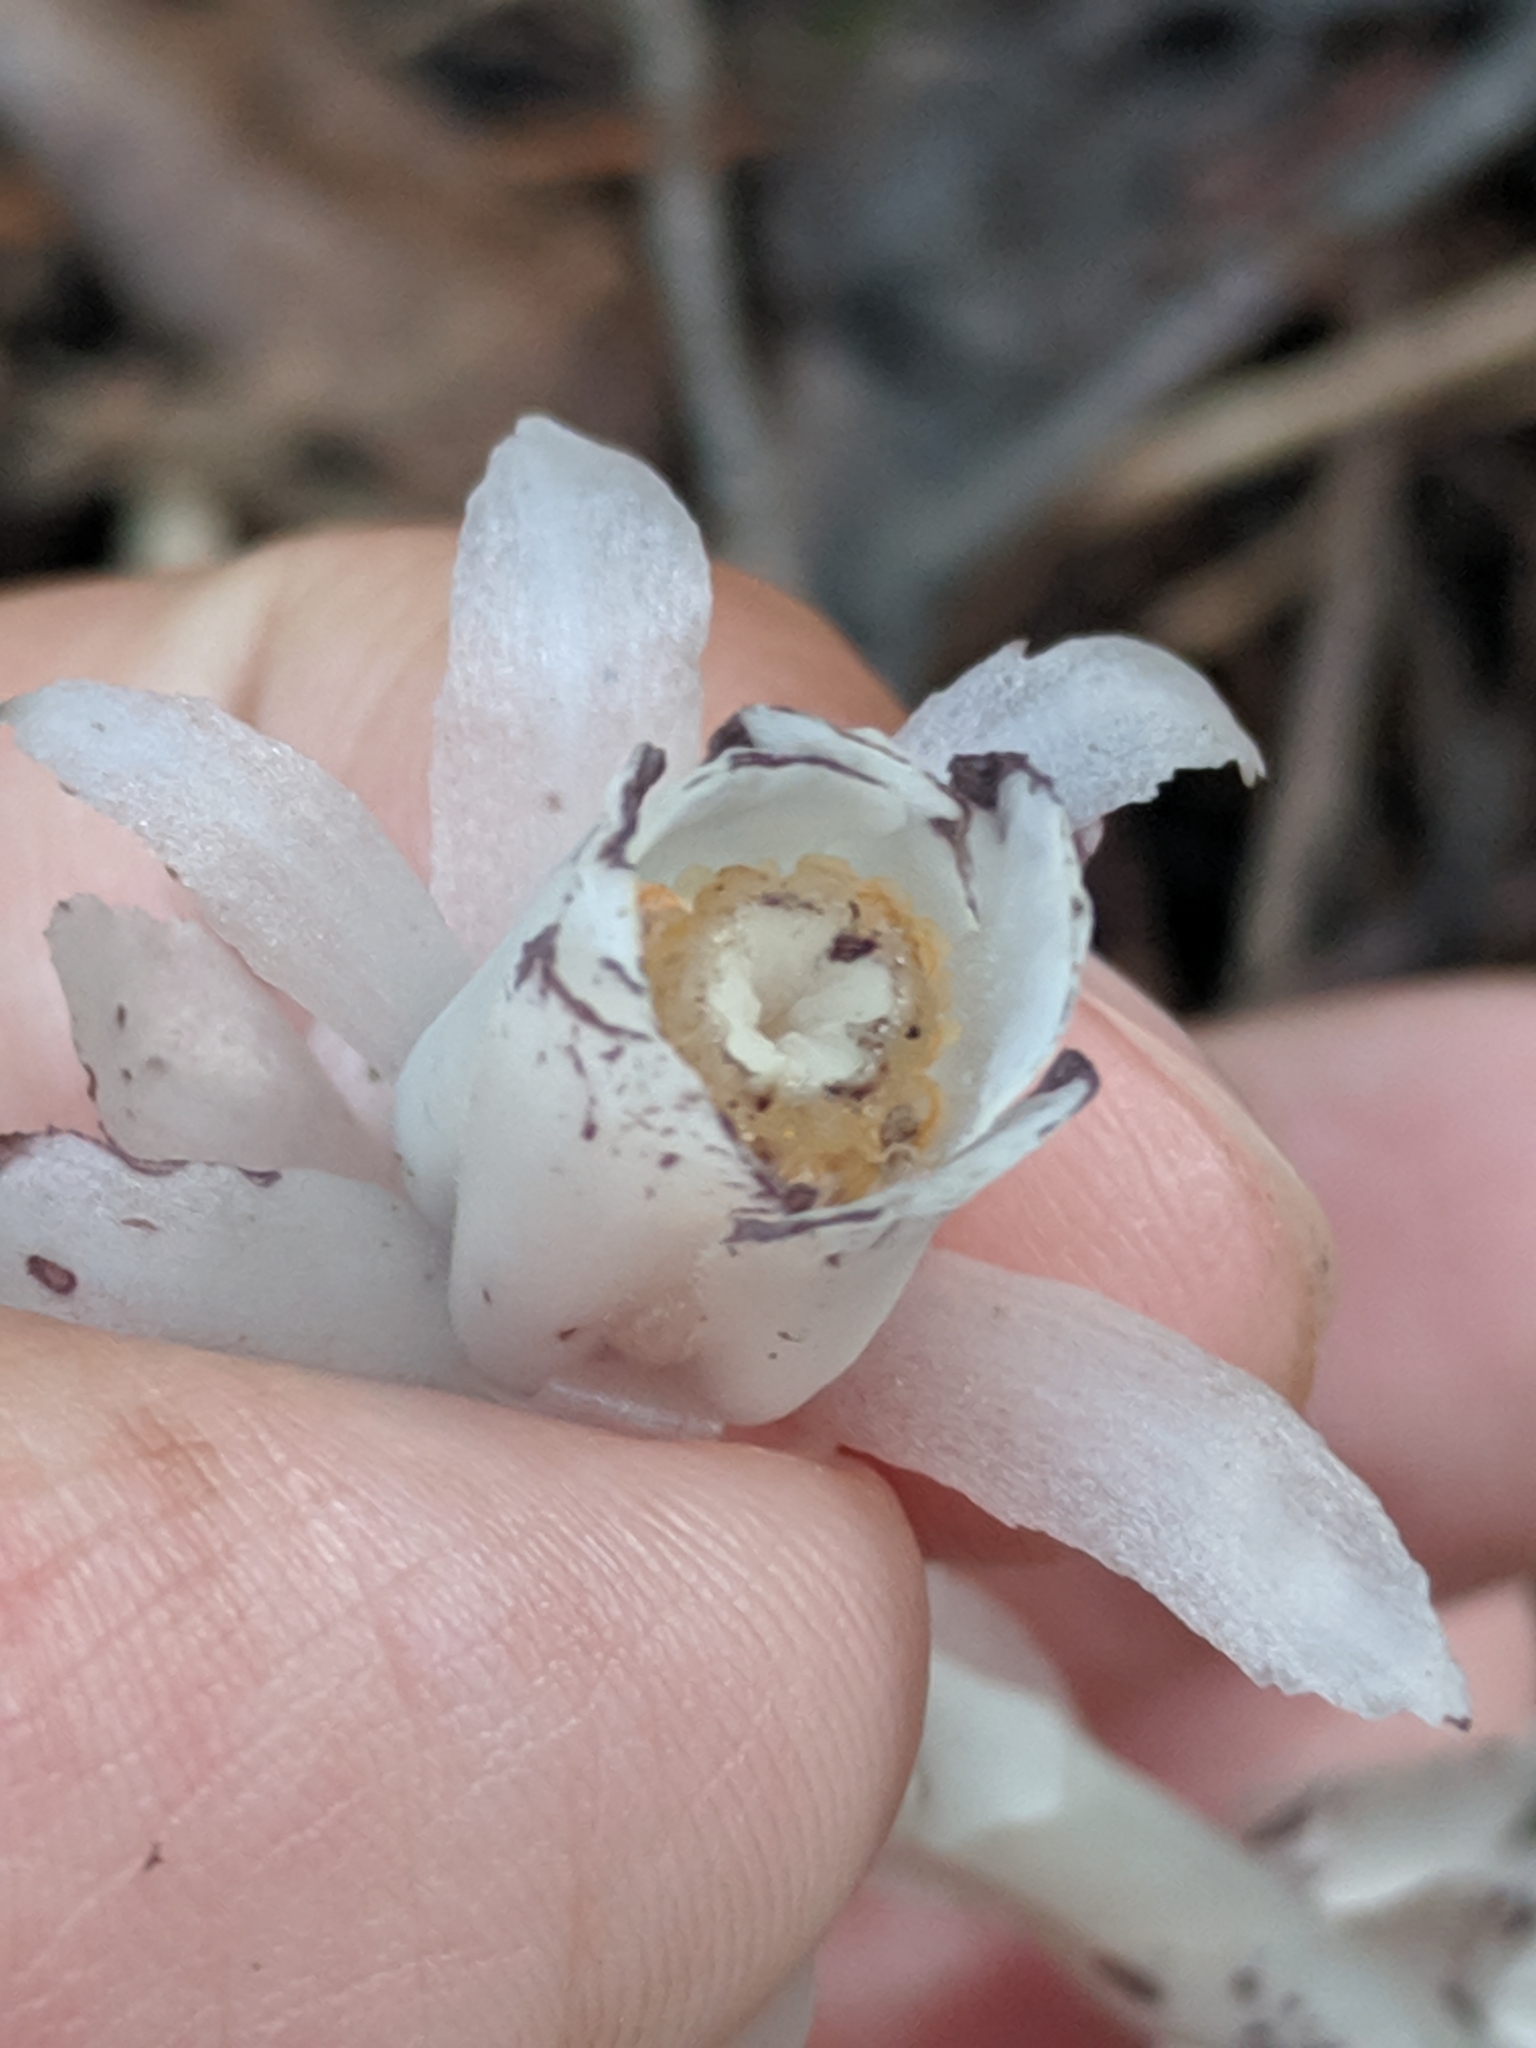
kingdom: Plantae
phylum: Tracheophyta
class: Magnoliopsida
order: Ericales
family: Ericaceae
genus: Monotropa
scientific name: Monotropa uniflora
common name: Convulsion root
